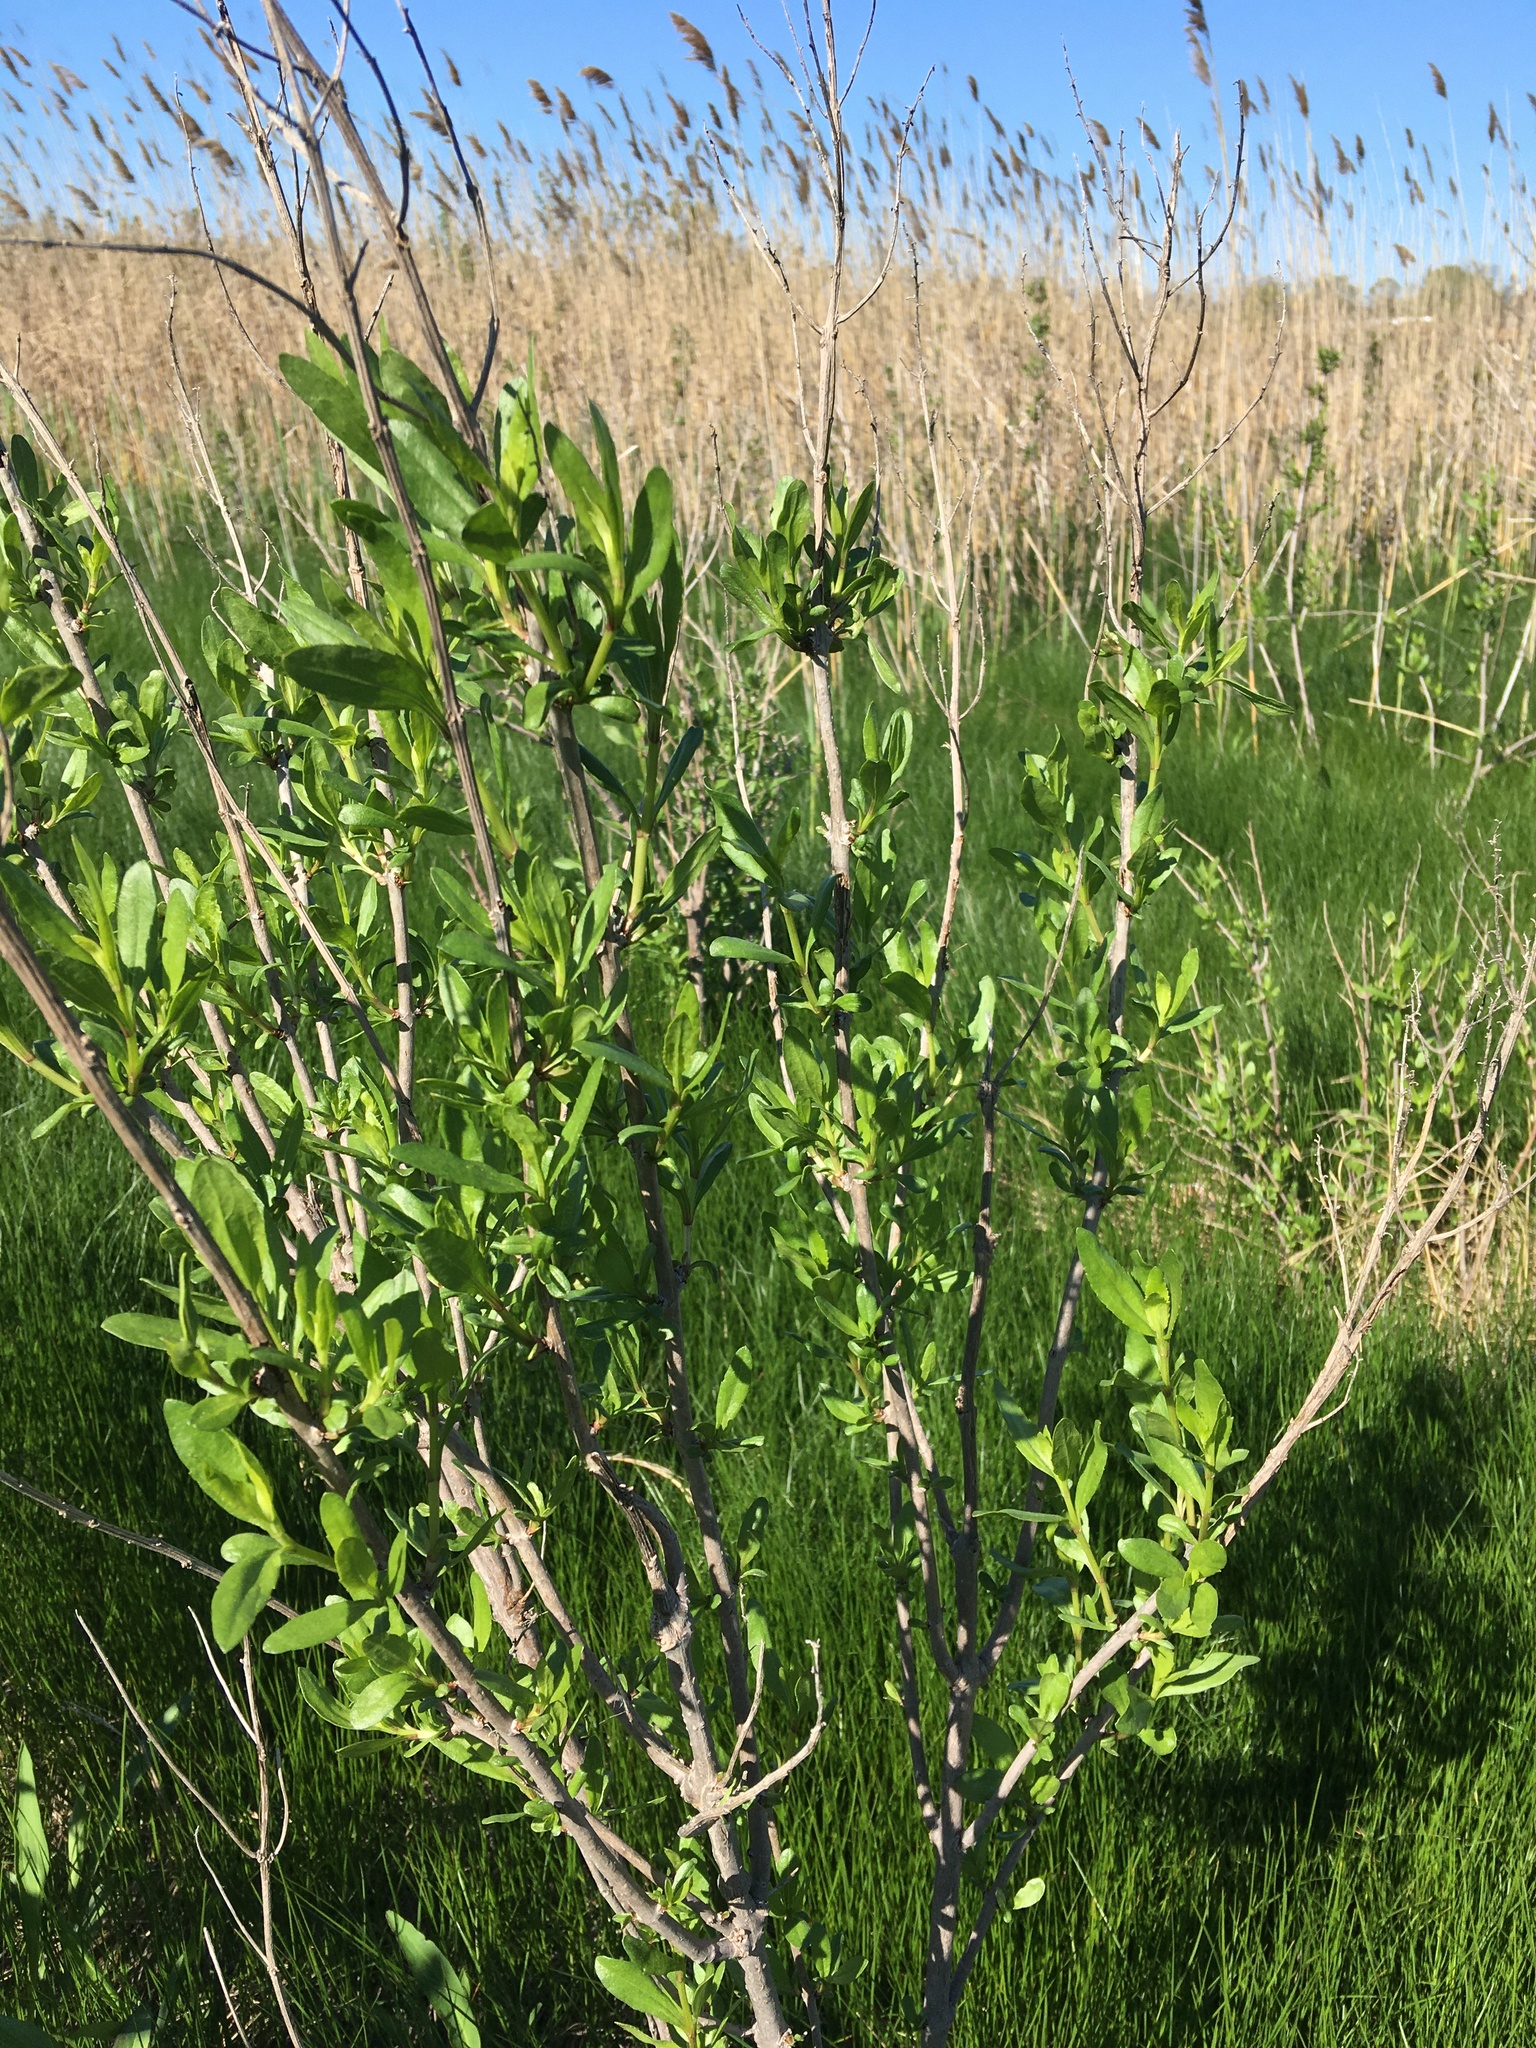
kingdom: Plantae
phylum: Tracheophyta
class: Magnoliopsida
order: Asterales
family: Asteraceae
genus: Iva
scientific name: Iva frutescens
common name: Big-leaved marsh-elder
